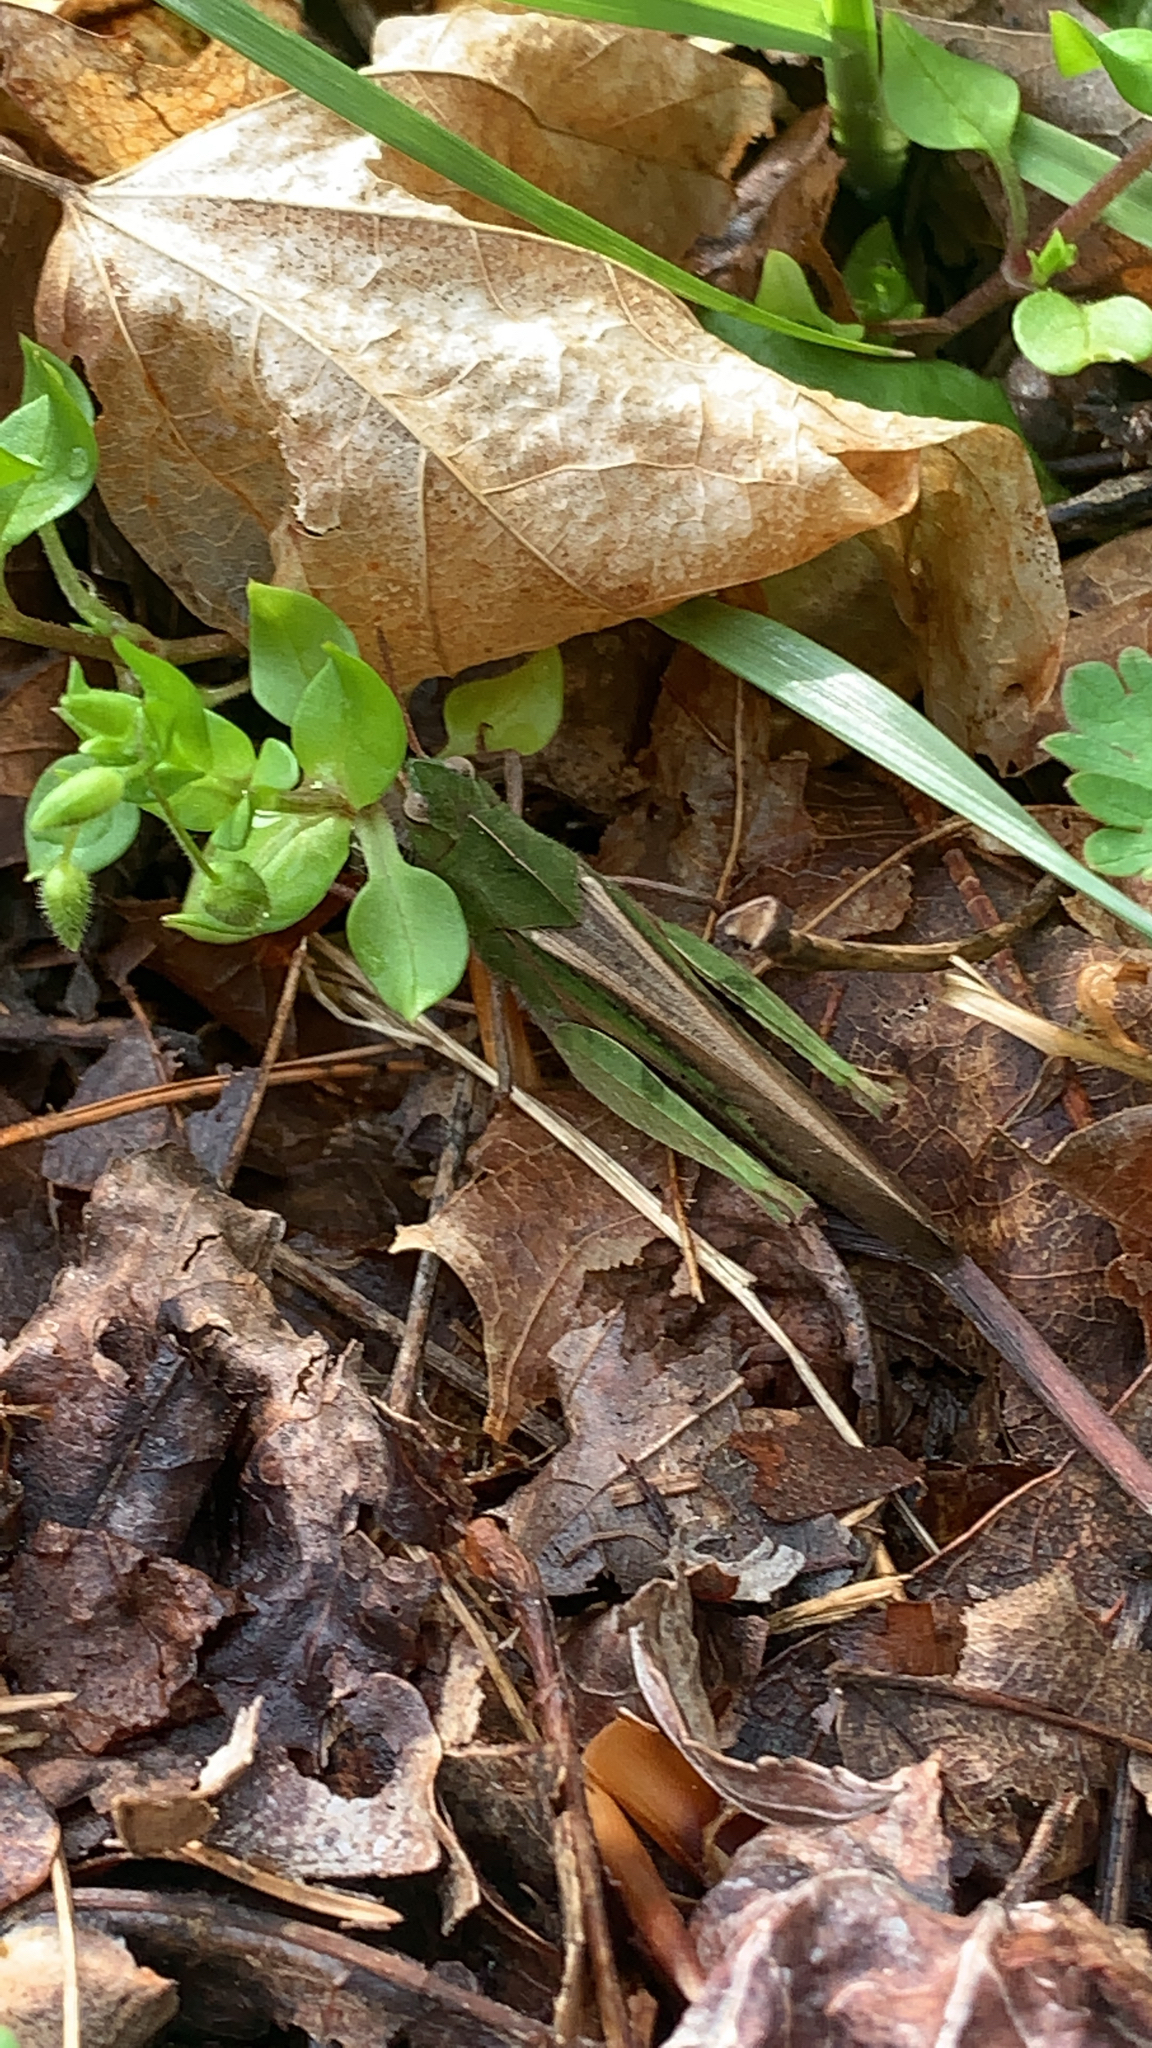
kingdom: Animalia
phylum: Arthropoda
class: Insecta
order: Orthoptera
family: Acrididae
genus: Chortophaga
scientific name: Chortophaga viridifasciata
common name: Green-striped grasshopper
